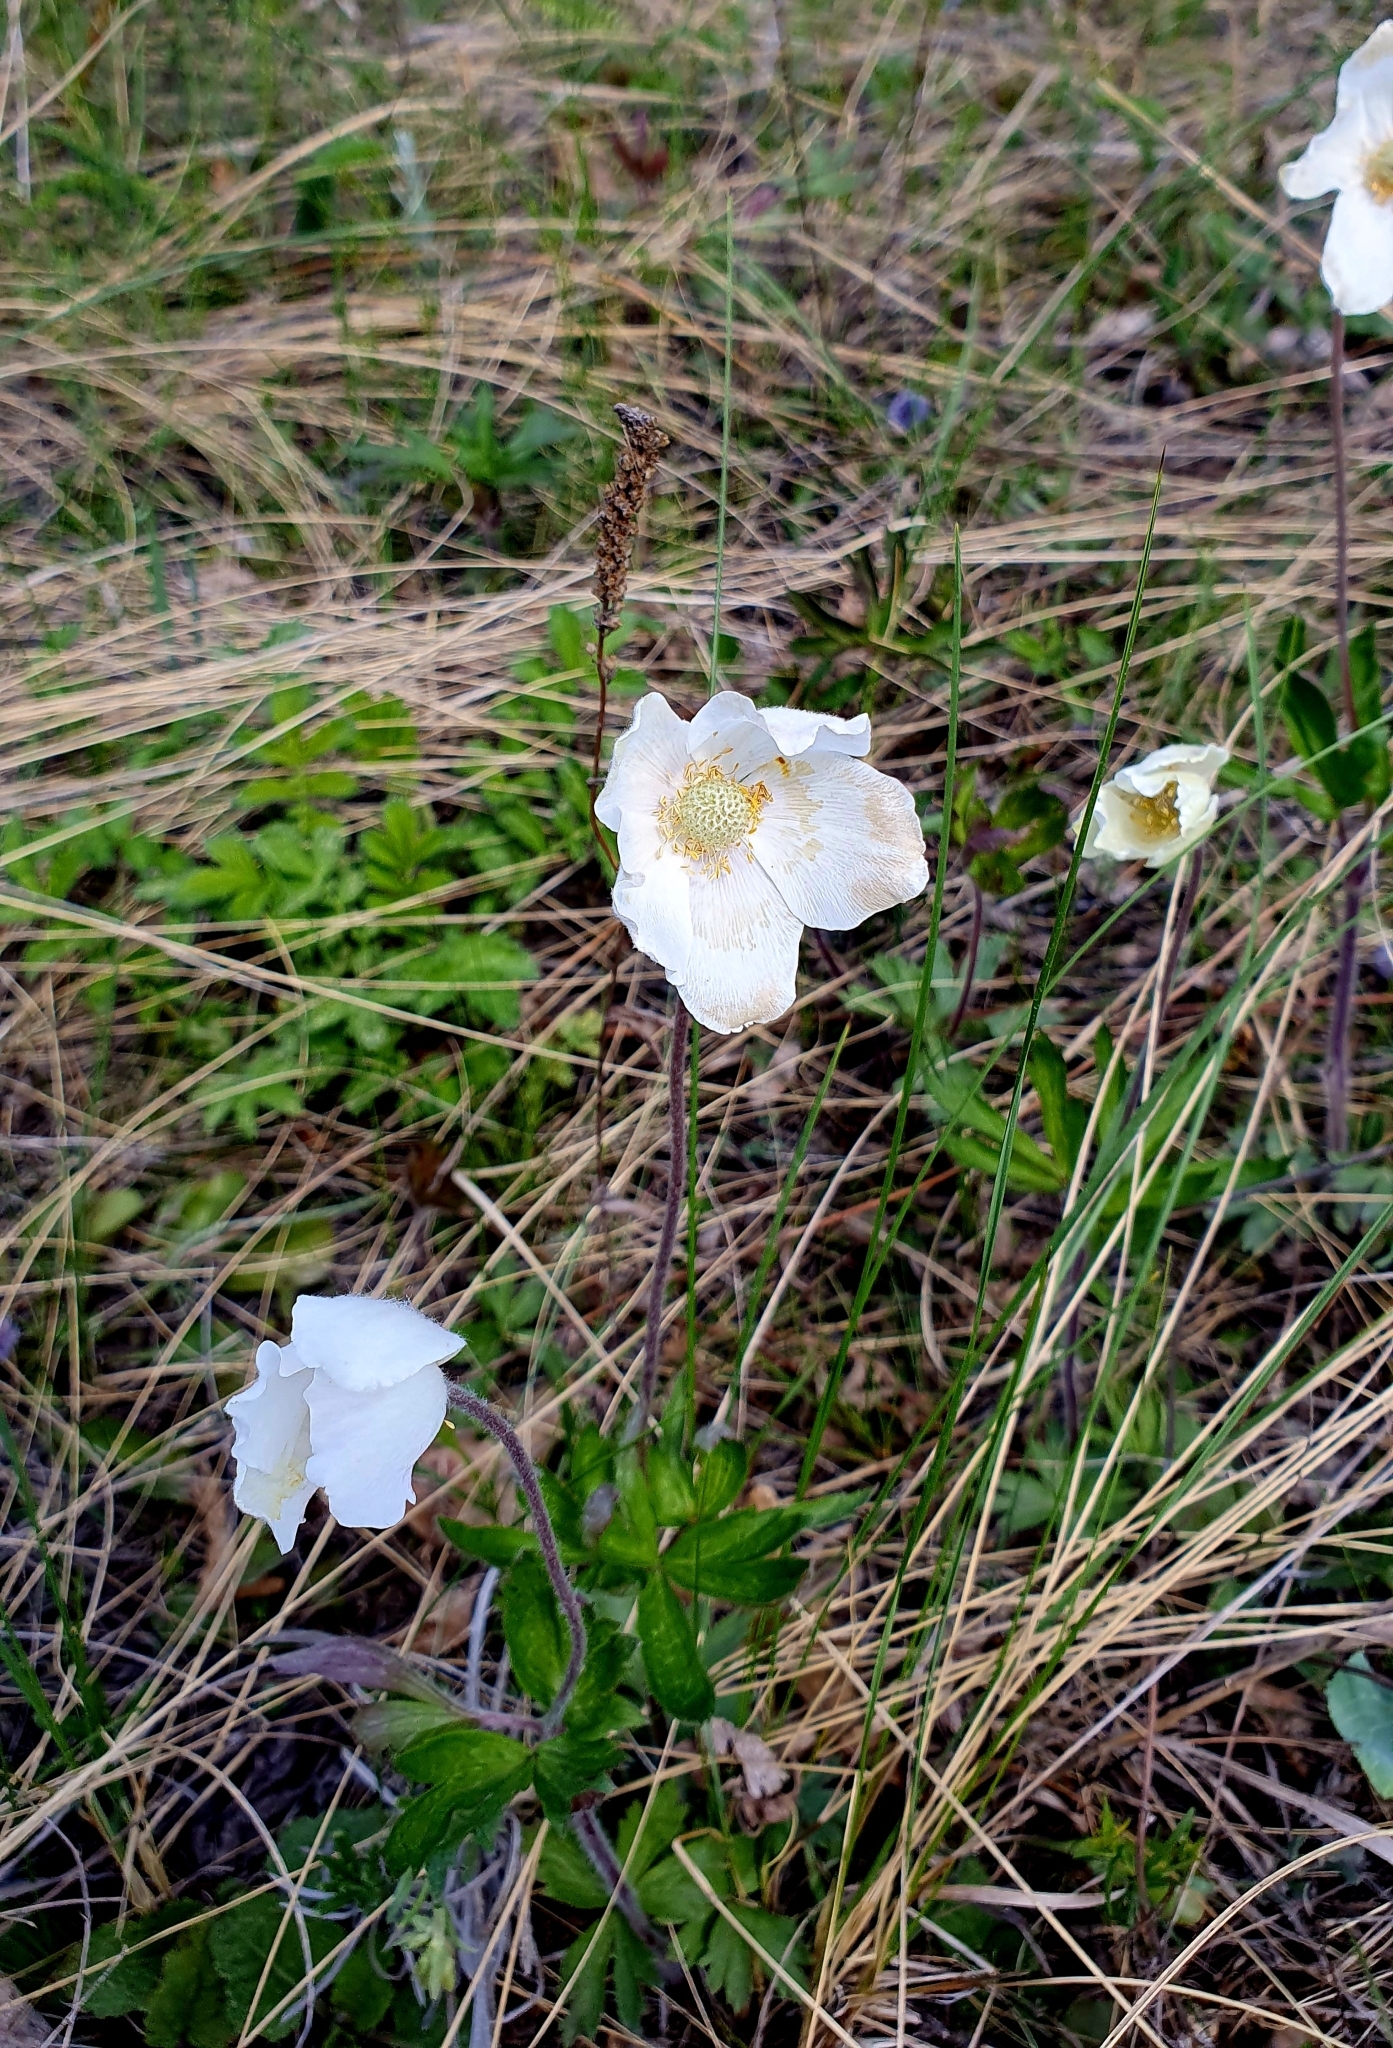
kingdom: Plantae
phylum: Tracheophyta
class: Magnoliopsida
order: Ranunculales
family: Ranunculaceae
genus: Anemone
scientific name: Anemone sylvestris
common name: Snowdrop anemone
